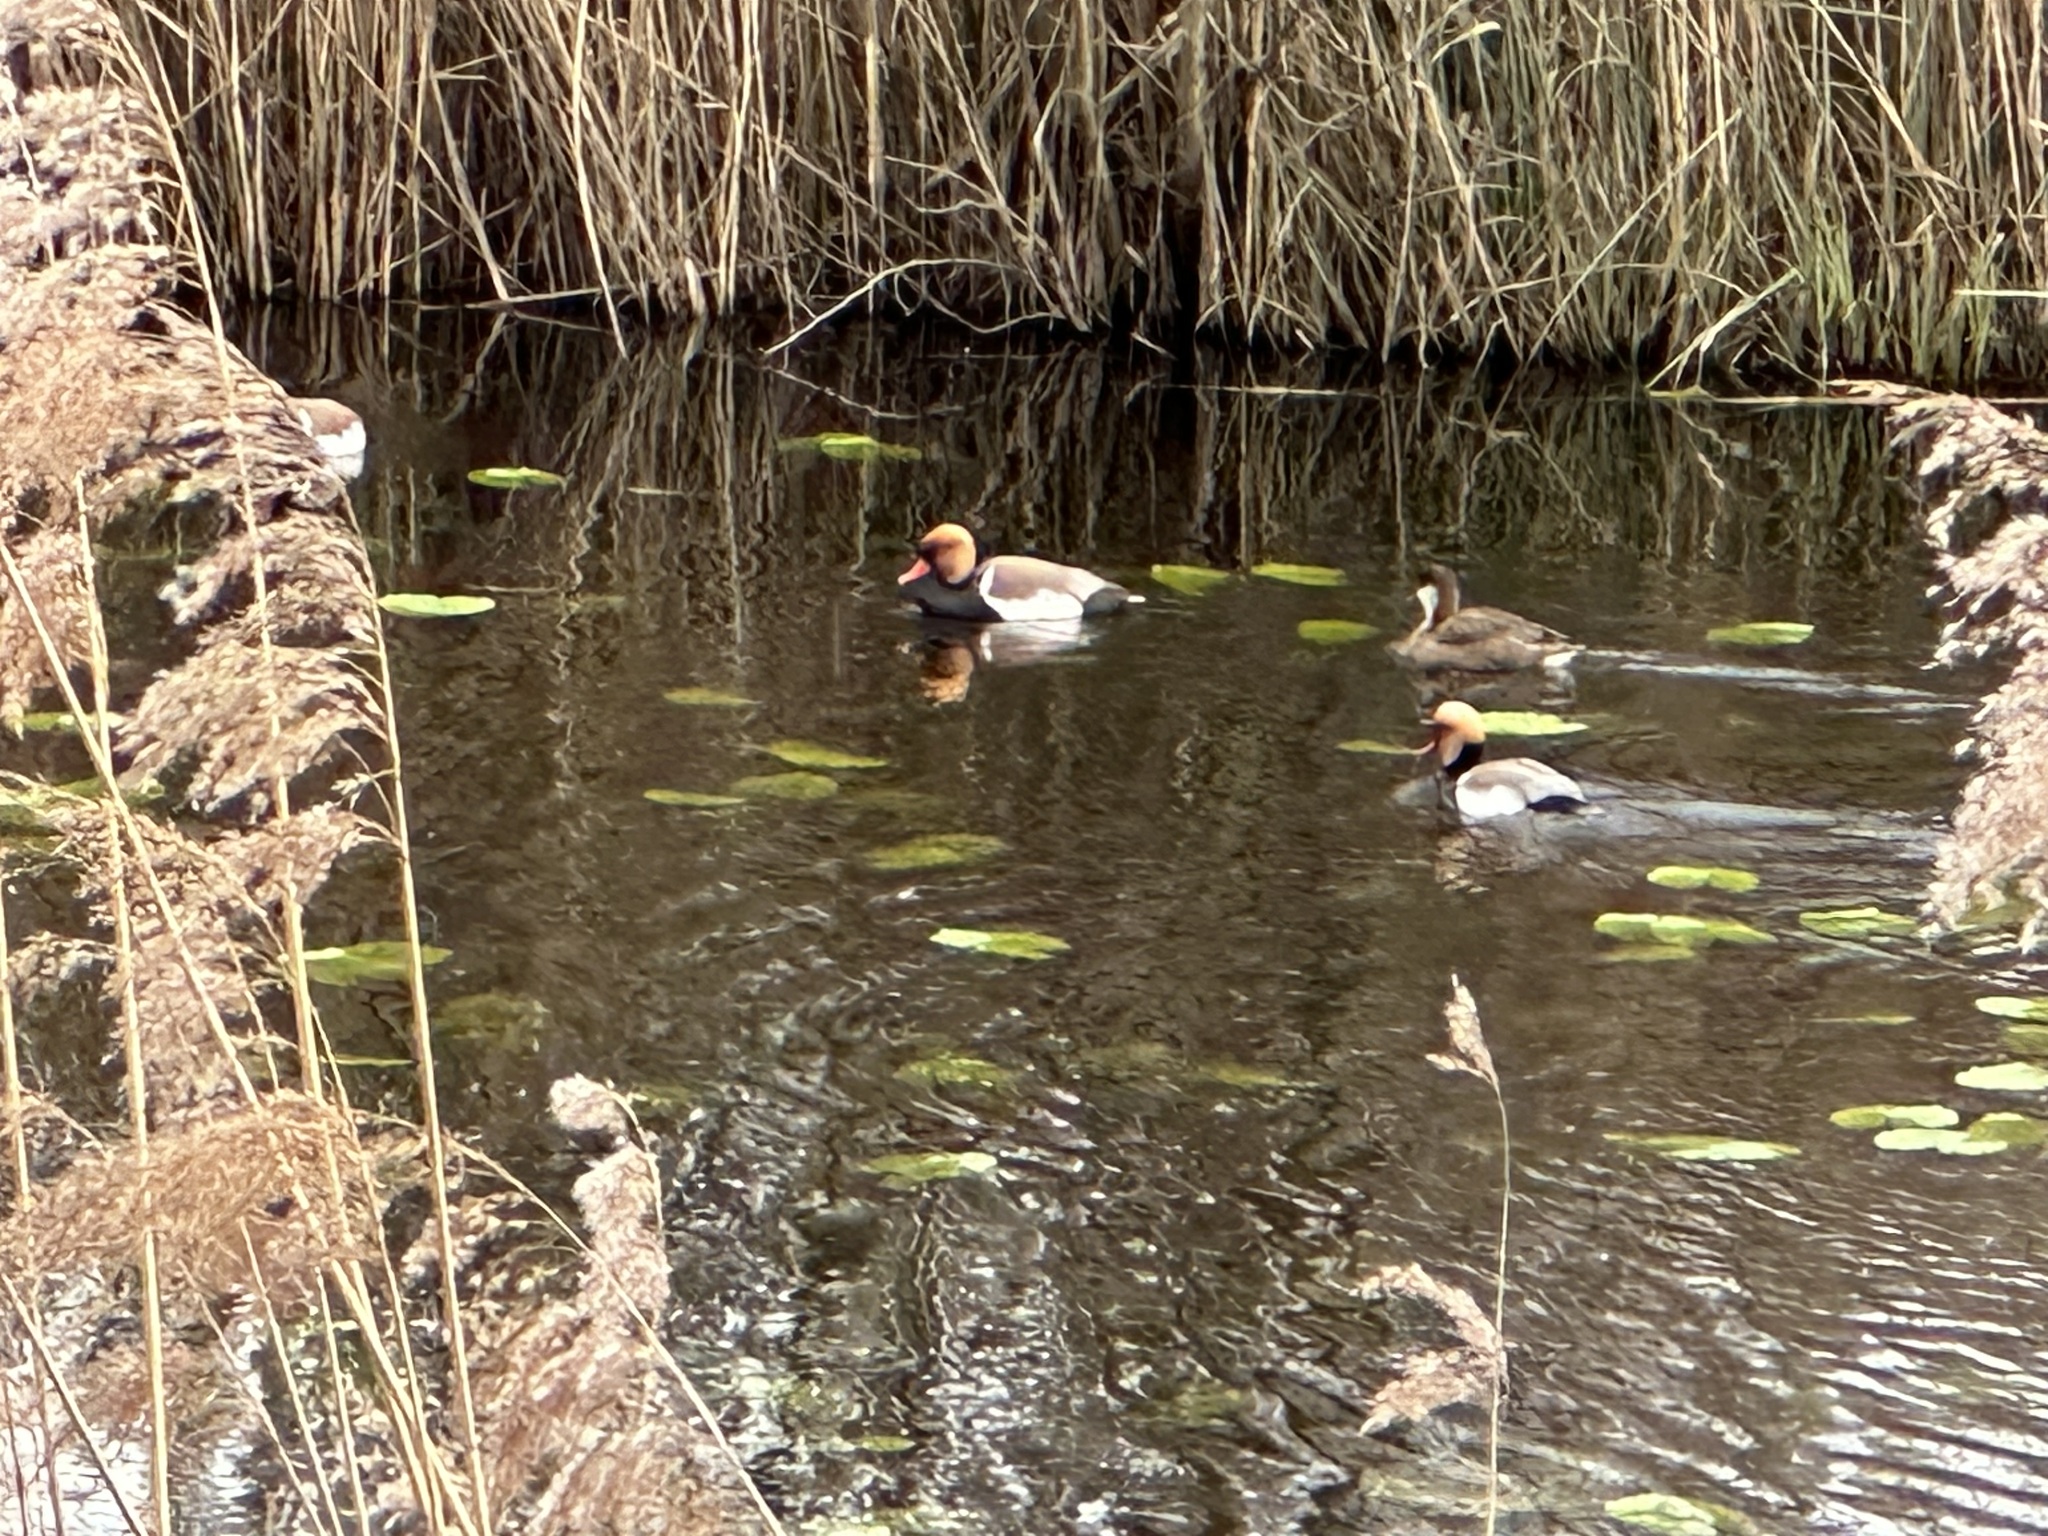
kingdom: Animalia
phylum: Chordata
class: Aves
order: Anseriformes
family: Anatidae
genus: Netta
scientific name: Netta rufina
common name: Red-crested pochard
